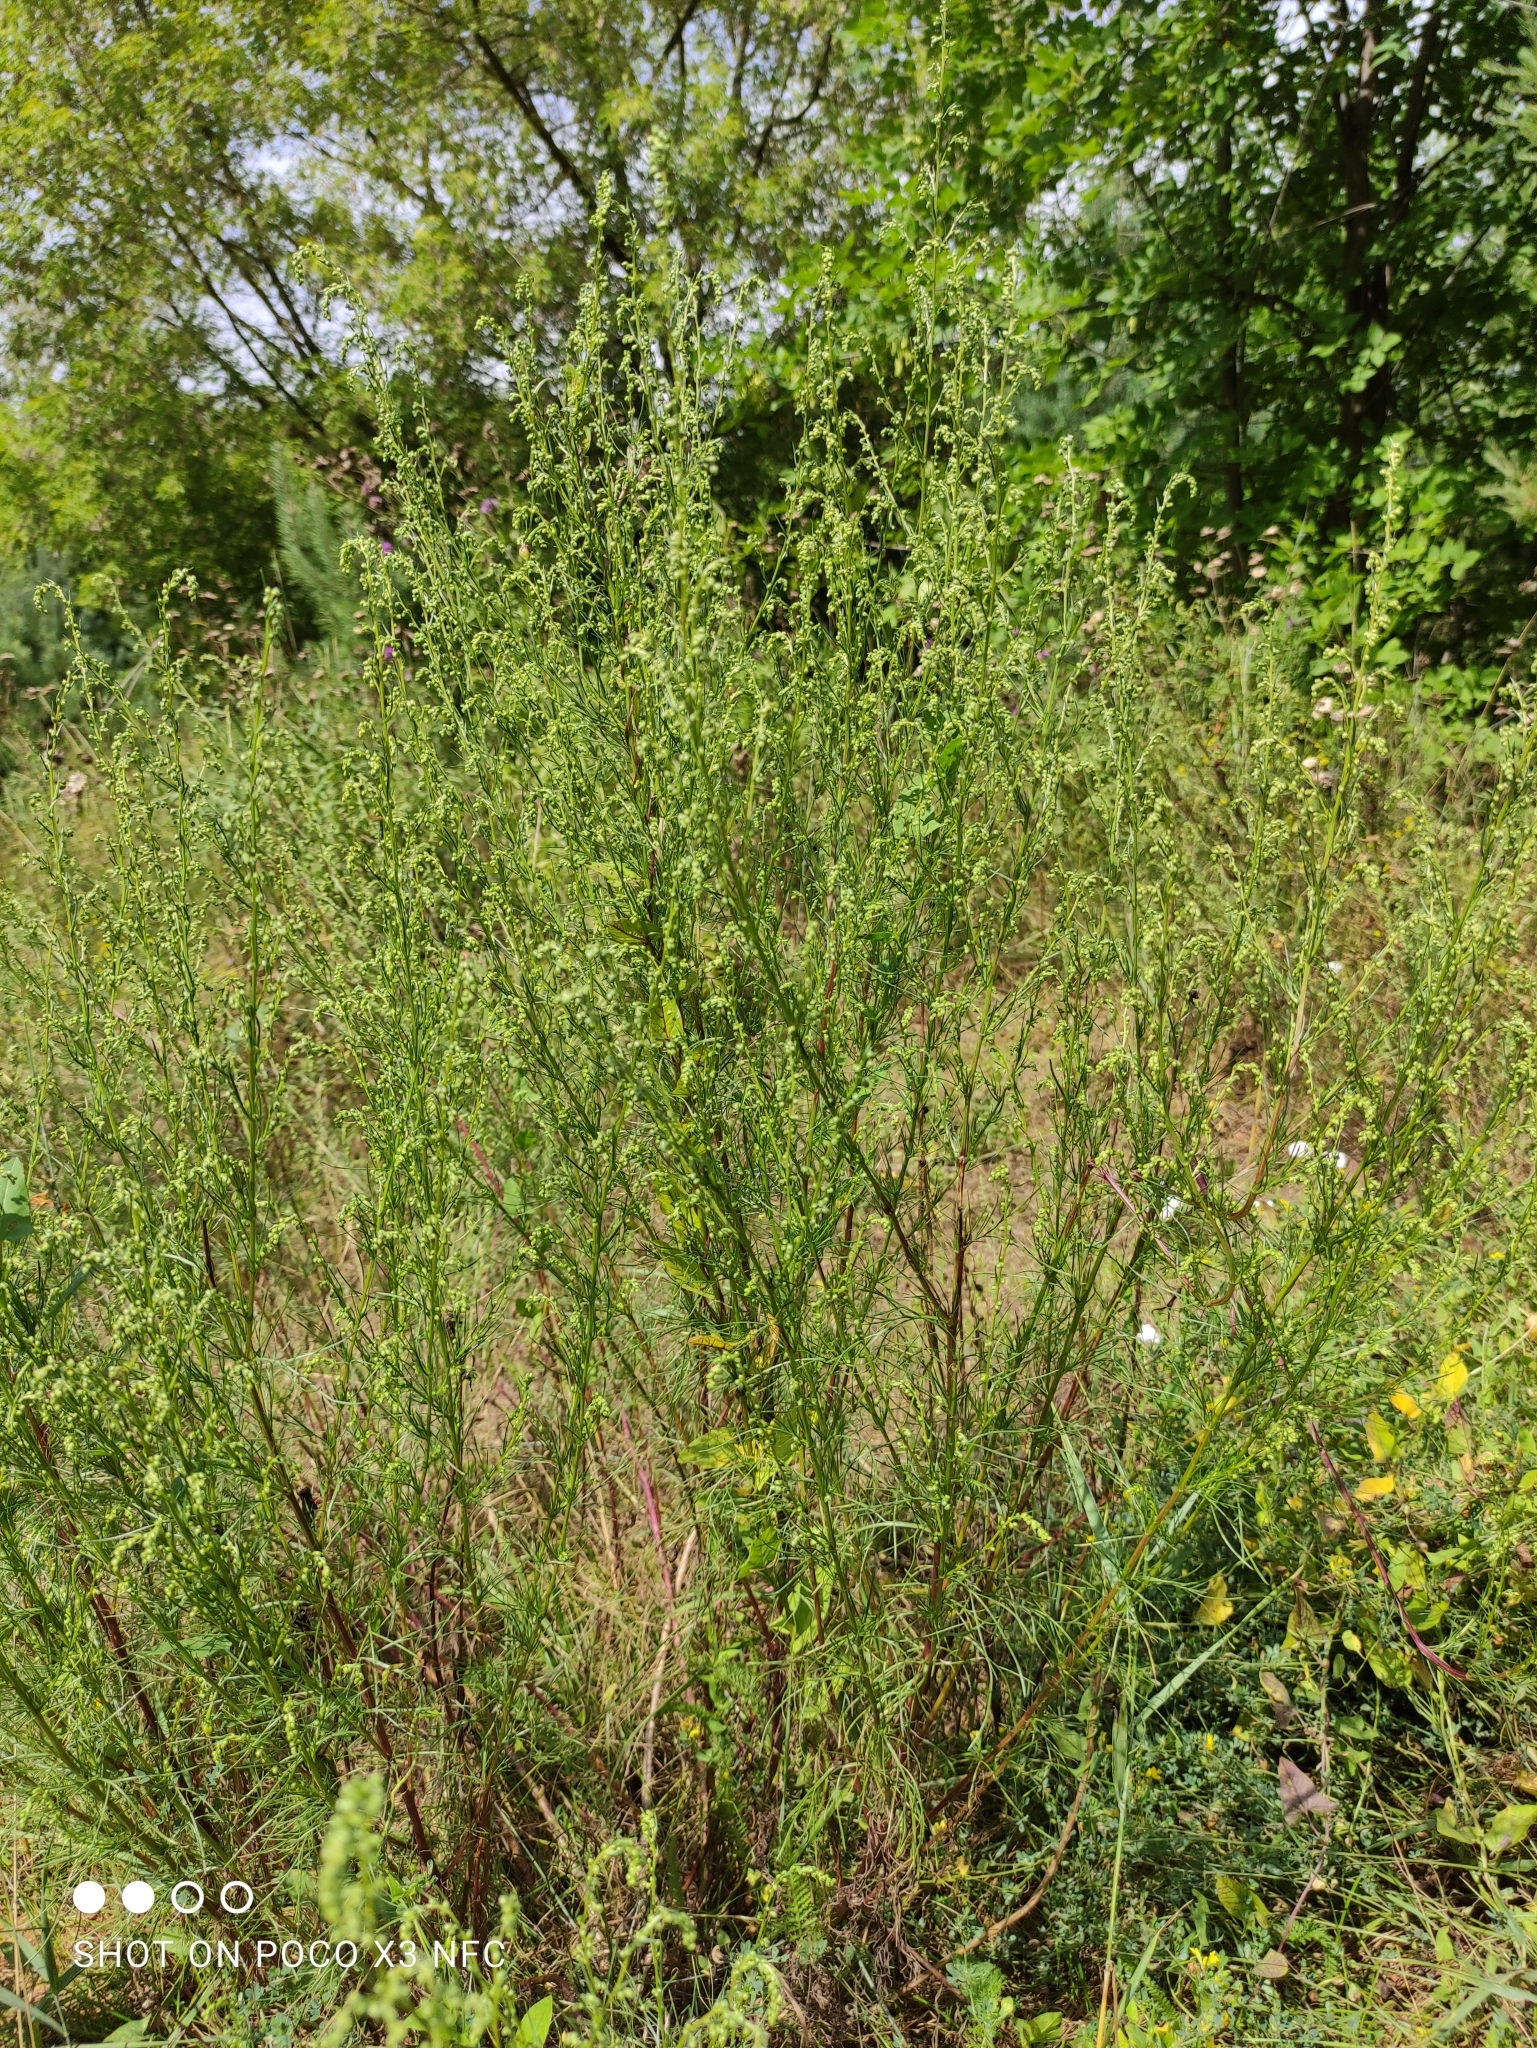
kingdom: Plantae
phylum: Tracheophyta
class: Magnoliopsida
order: Asterales
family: Asteraceae
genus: Artemisia
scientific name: Artemisia campestris
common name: Field wormwood
